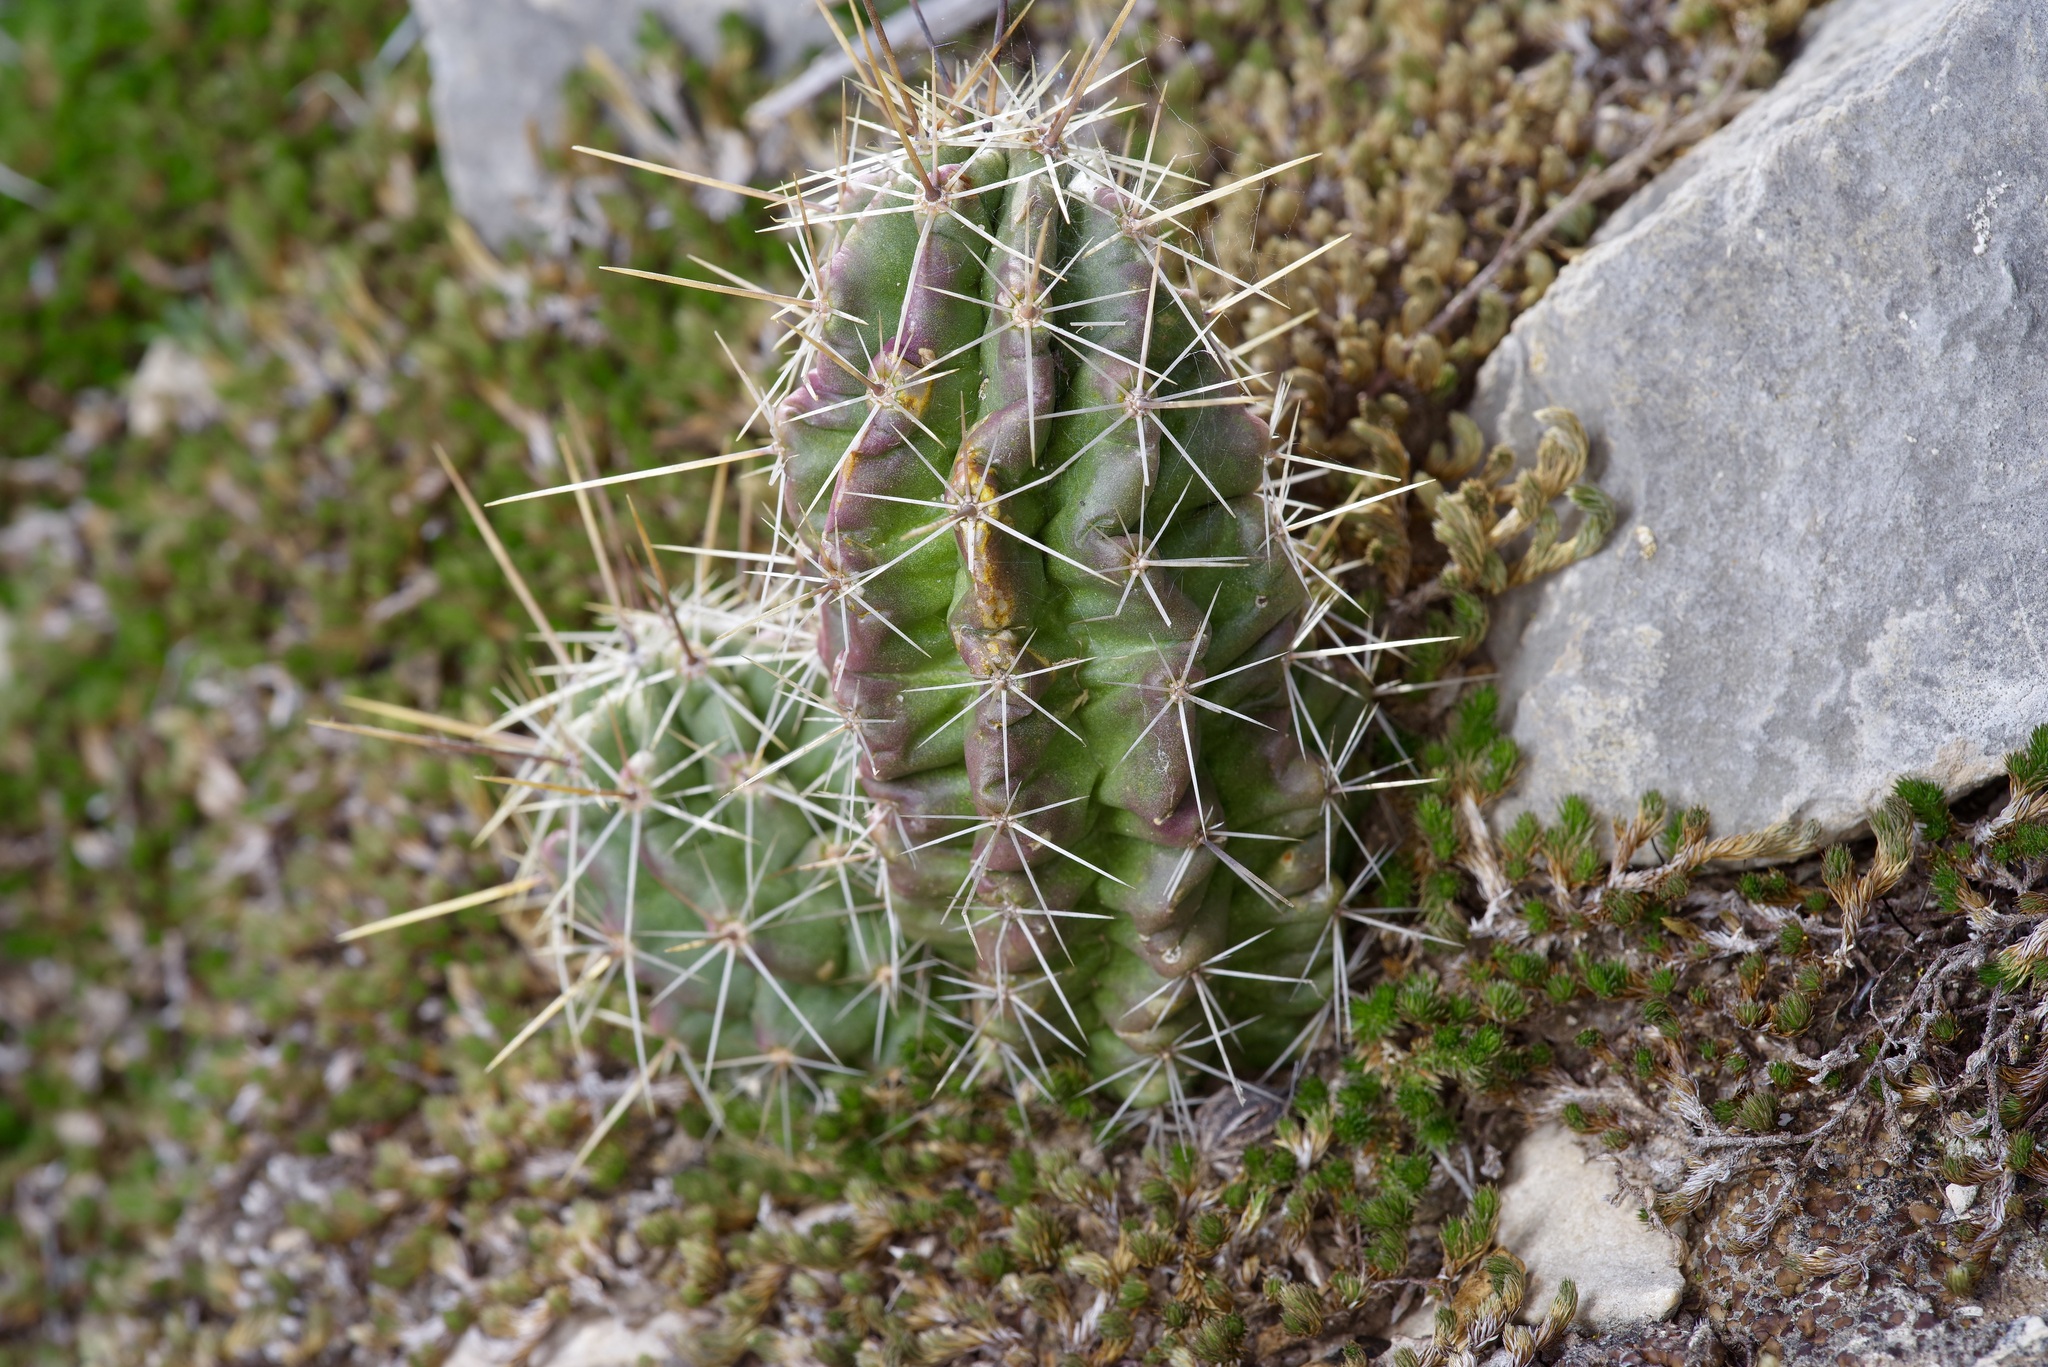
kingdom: Plantae
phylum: Tracheophyta
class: Magnoliopsida
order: Caryophyllales
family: Cactaceae
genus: Echinocereus
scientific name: Echinocereus enneacanthus
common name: Pitaya
